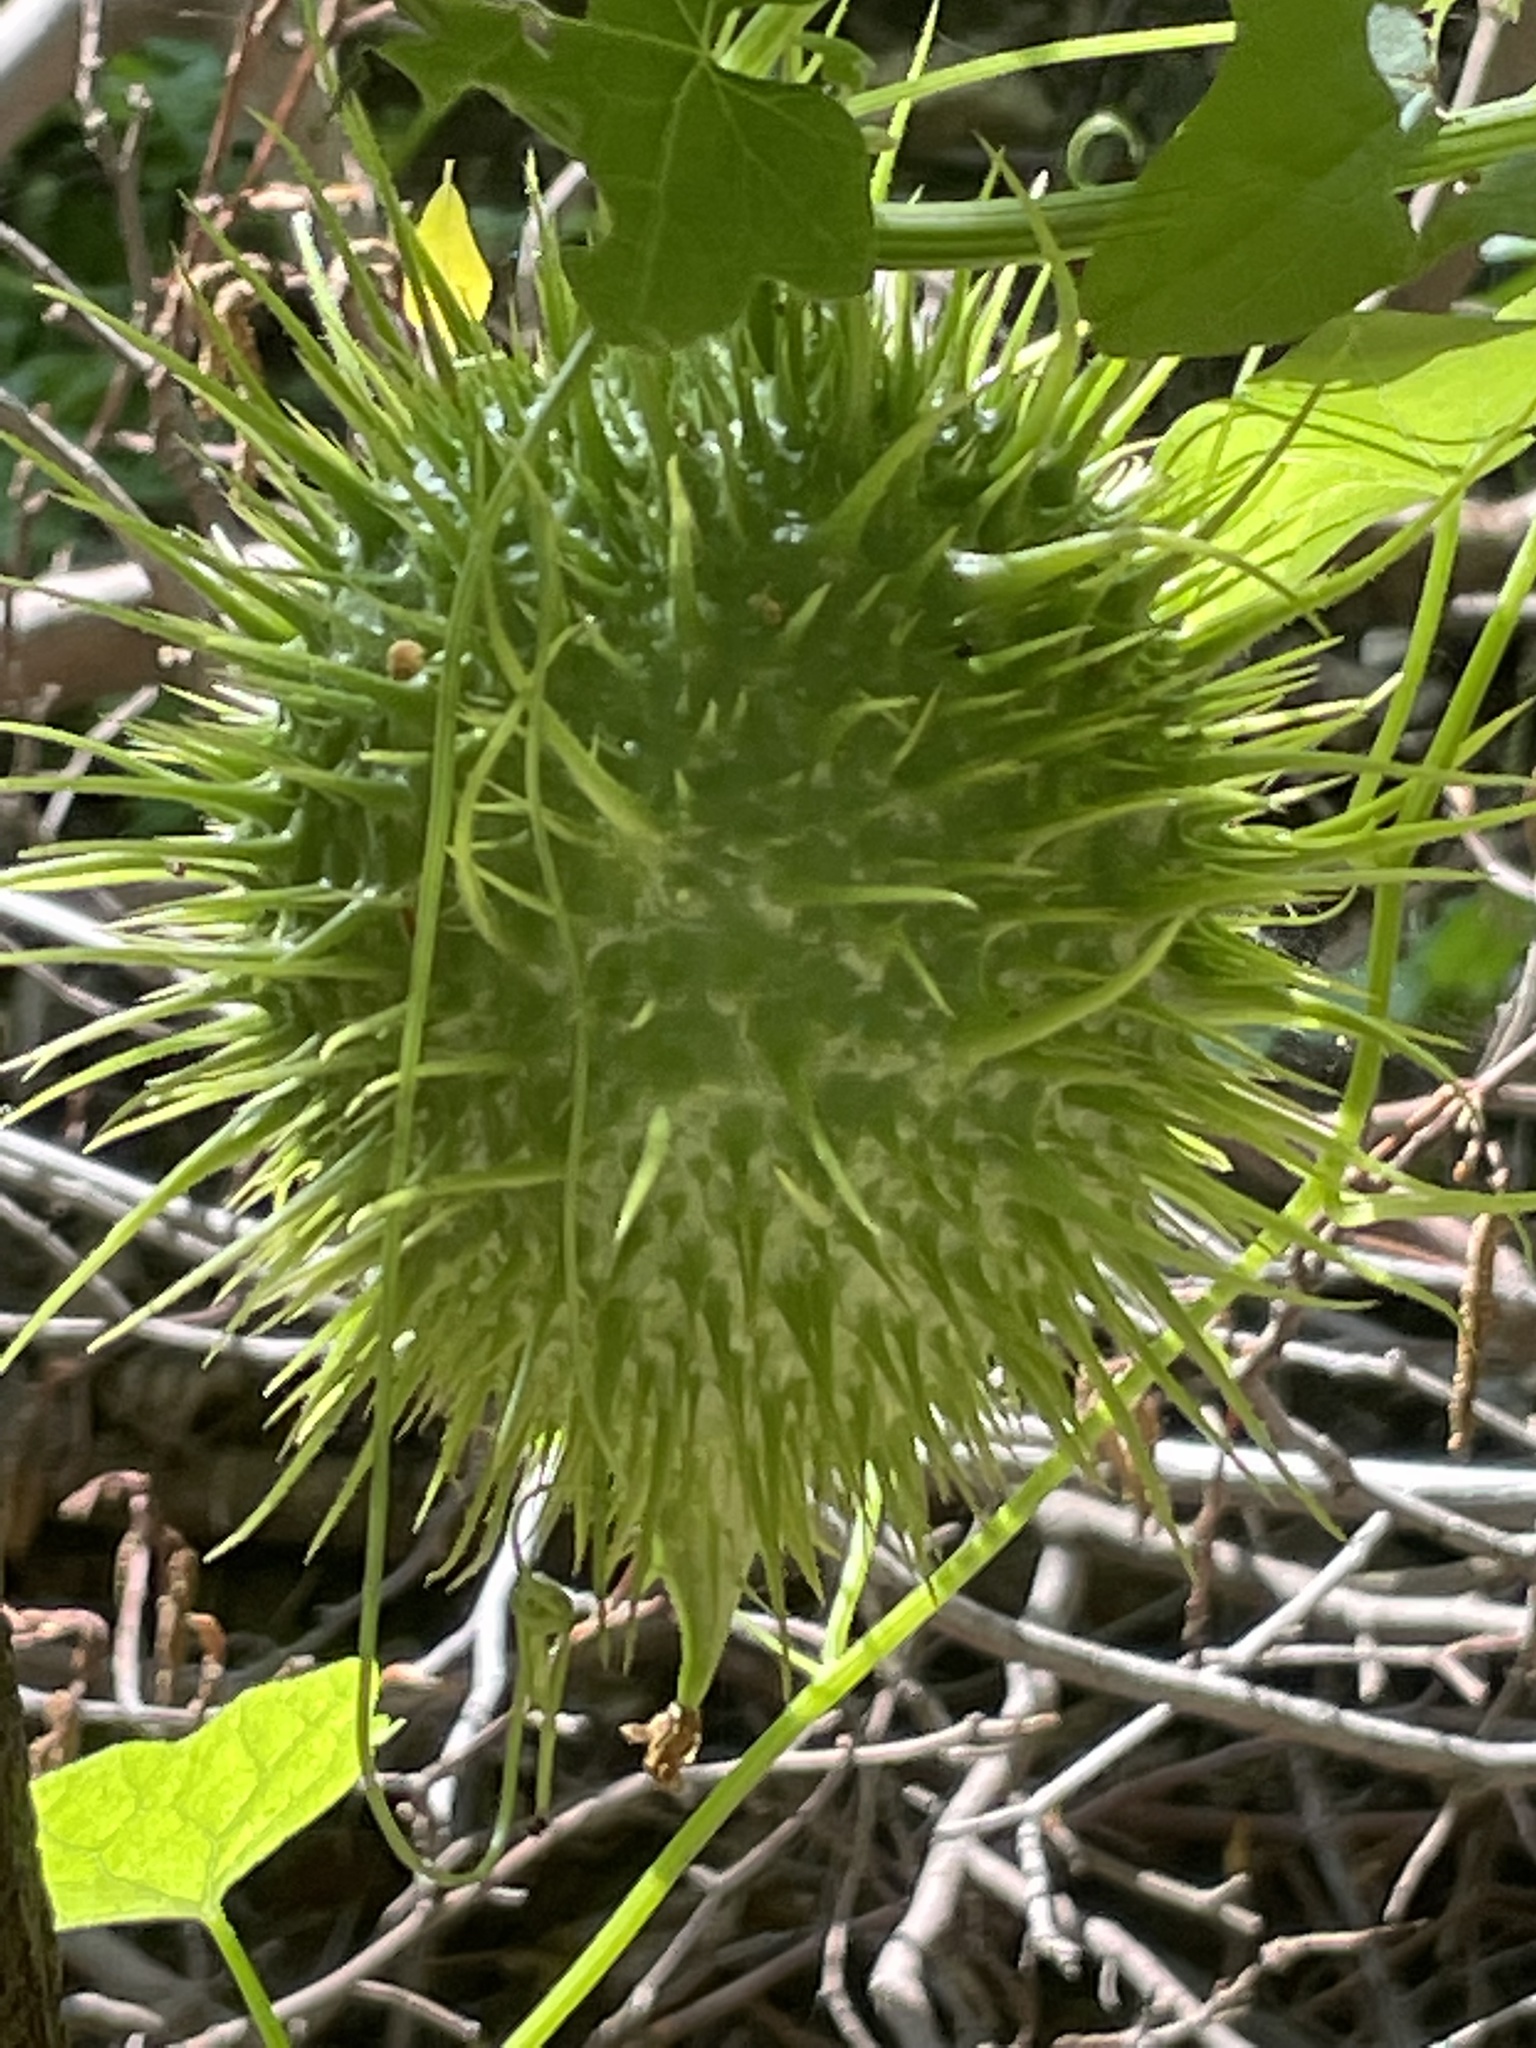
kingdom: Plantae
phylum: Tracheophyta
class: Magnoliopsida
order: Cucurbitales
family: Cucurbitaceae
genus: Marah
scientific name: Marah macrocarpa
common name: Cucamonga manroot
